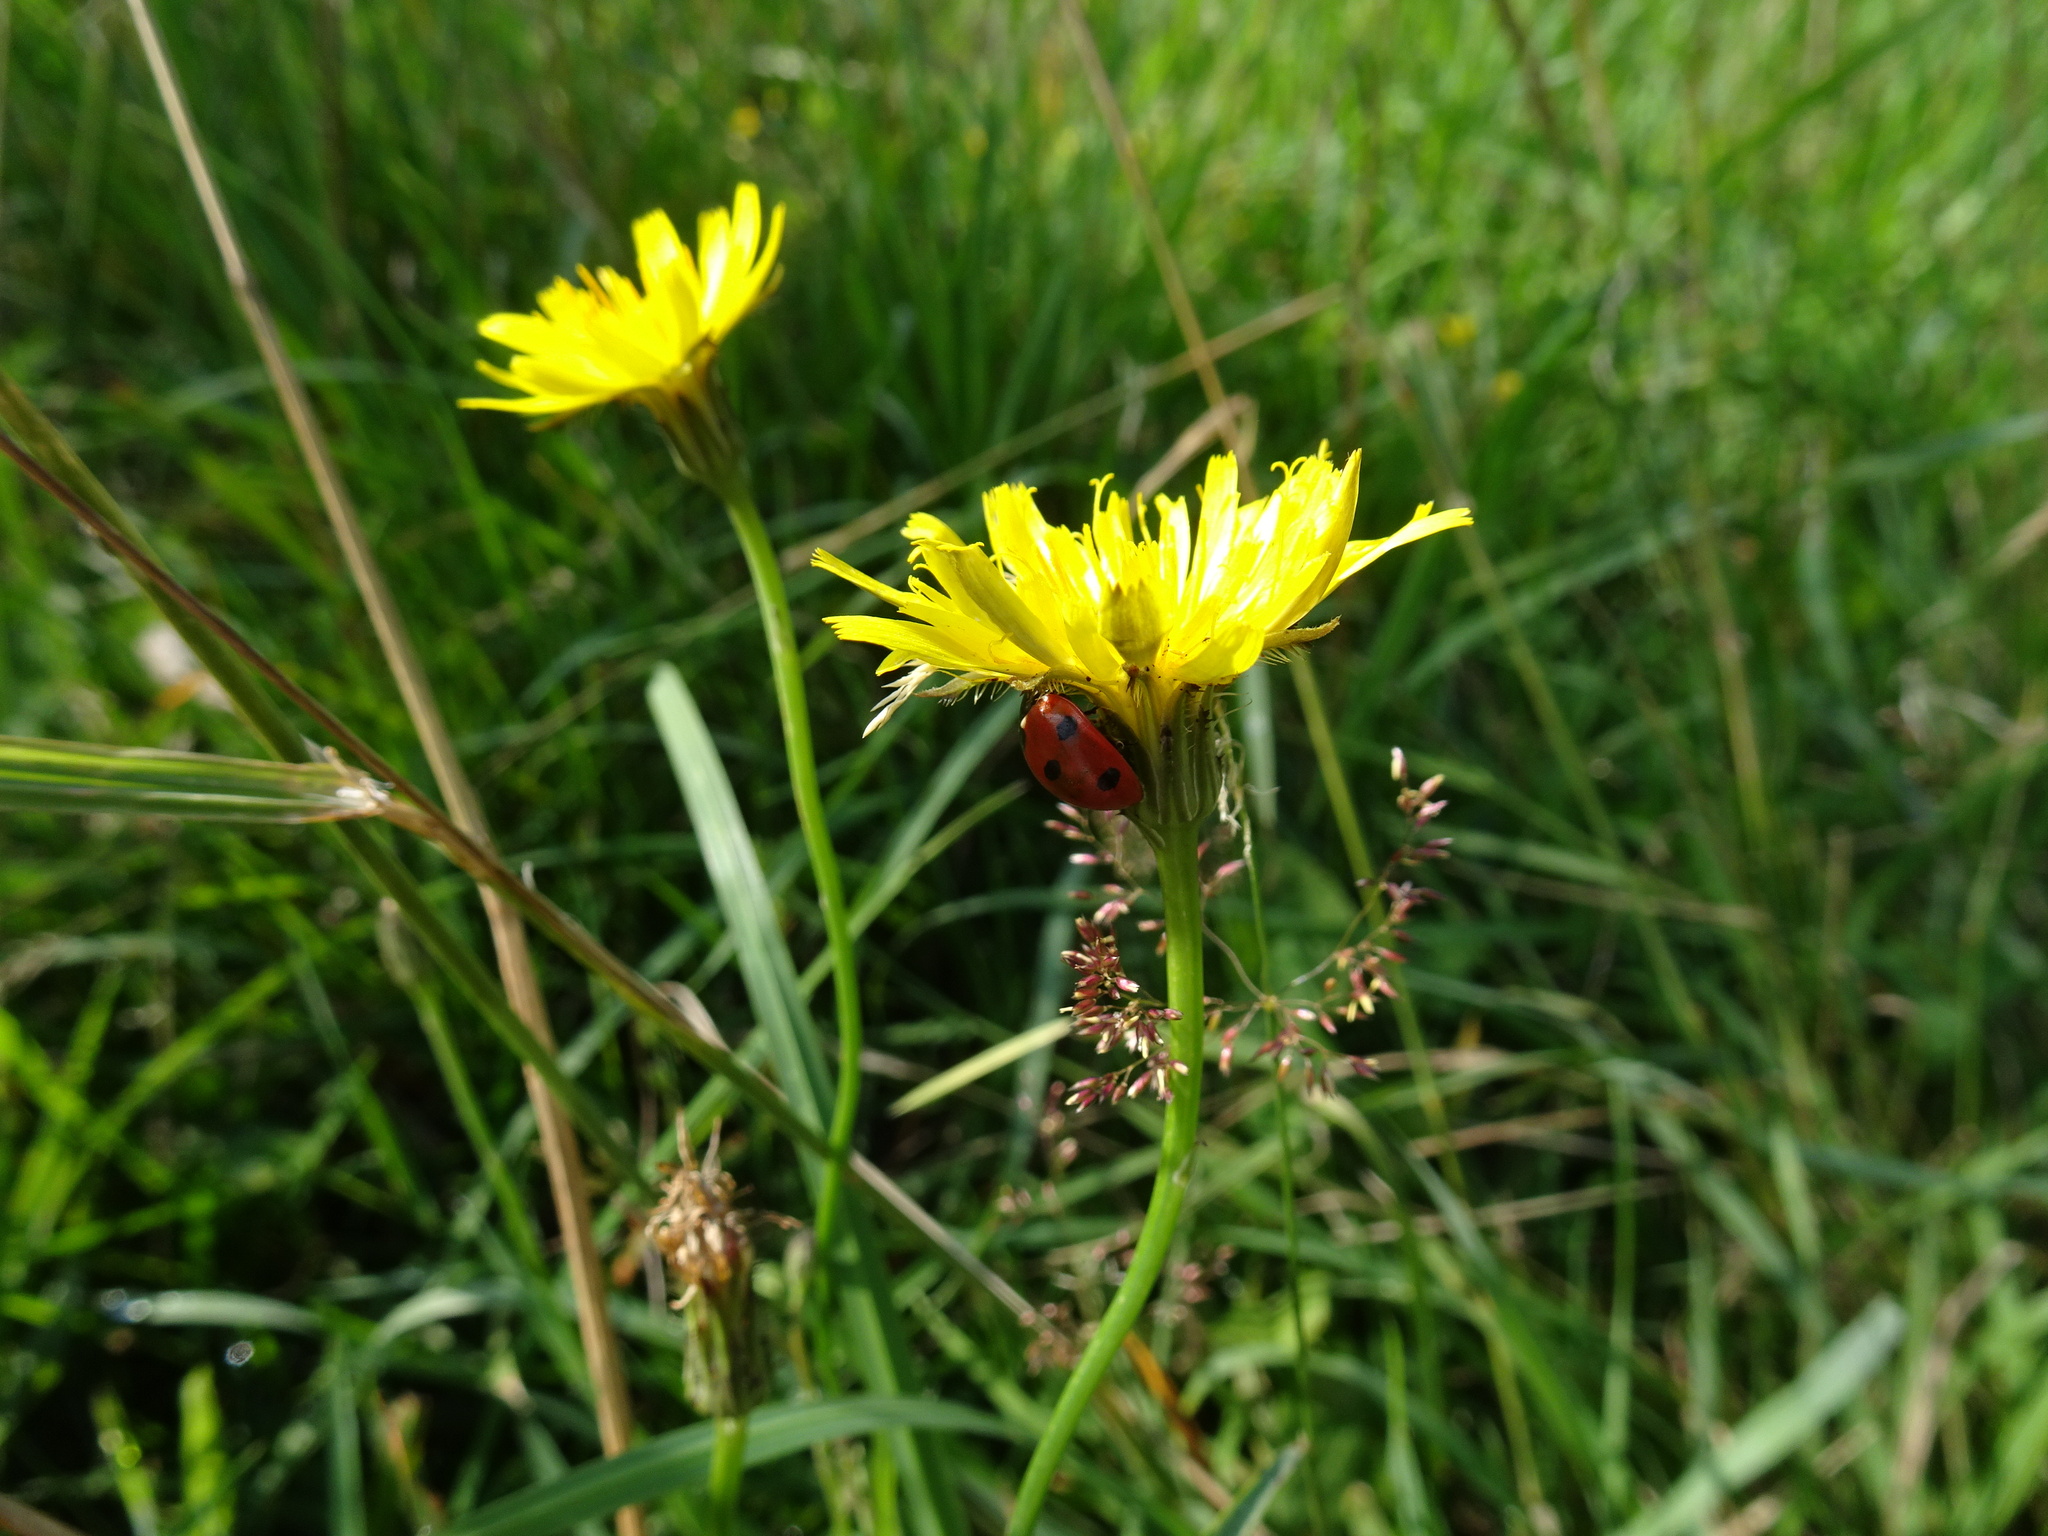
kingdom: Plantae
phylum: Tracheophyta
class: Magnoliopsida
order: Asterales
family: Asteraceae
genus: Hypochaeris
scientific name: Hypochaeris radicata
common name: Flatweed
